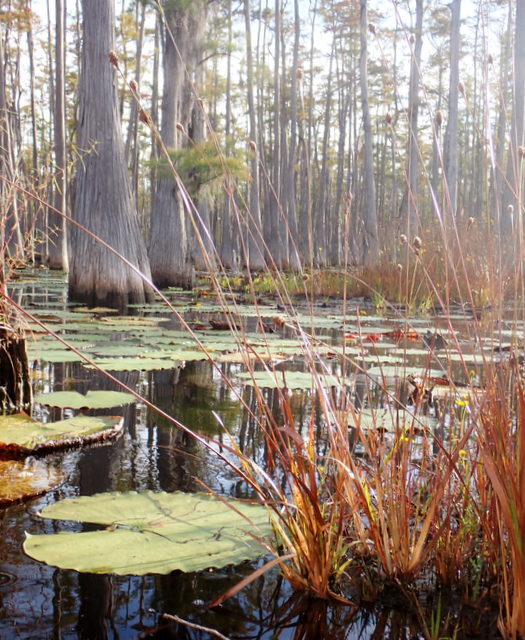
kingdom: Plantae
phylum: Tracheophyta
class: Liliopsida
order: Poales
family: Xyridaceae
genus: Xyris
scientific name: Xyris fimbriata
